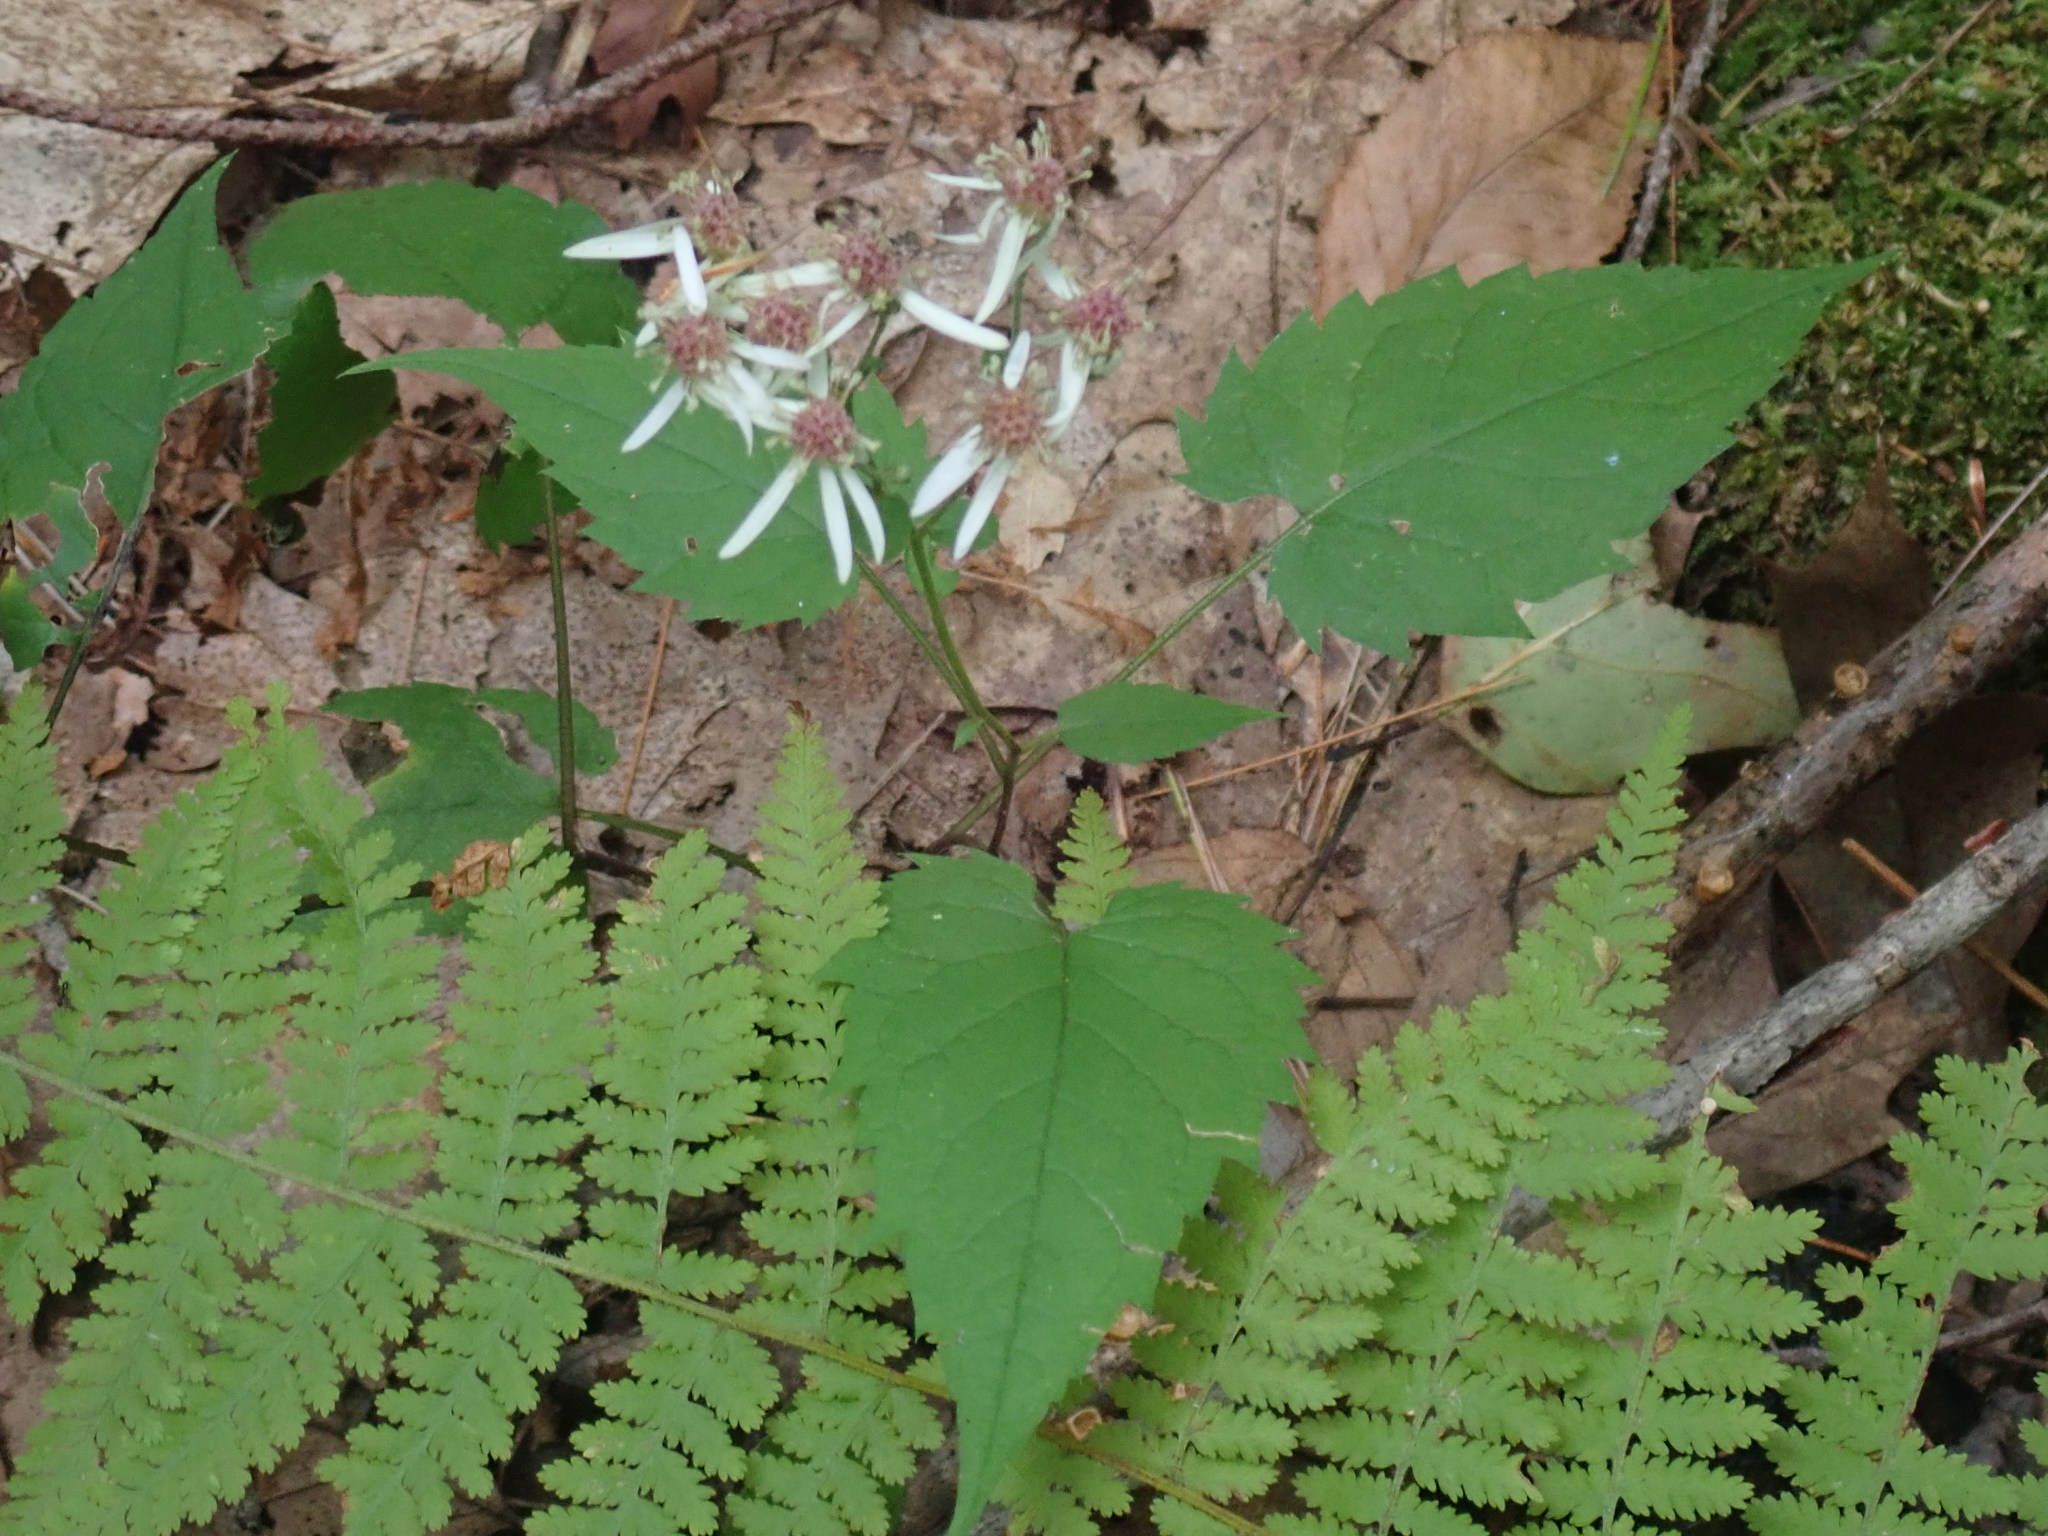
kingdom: Plantae
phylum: Tracheophyta
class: Magnoliopsida
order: Asterales
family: Asteraceae
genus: Eurybia
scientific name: Eurybia divaricata
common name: White wood aster
